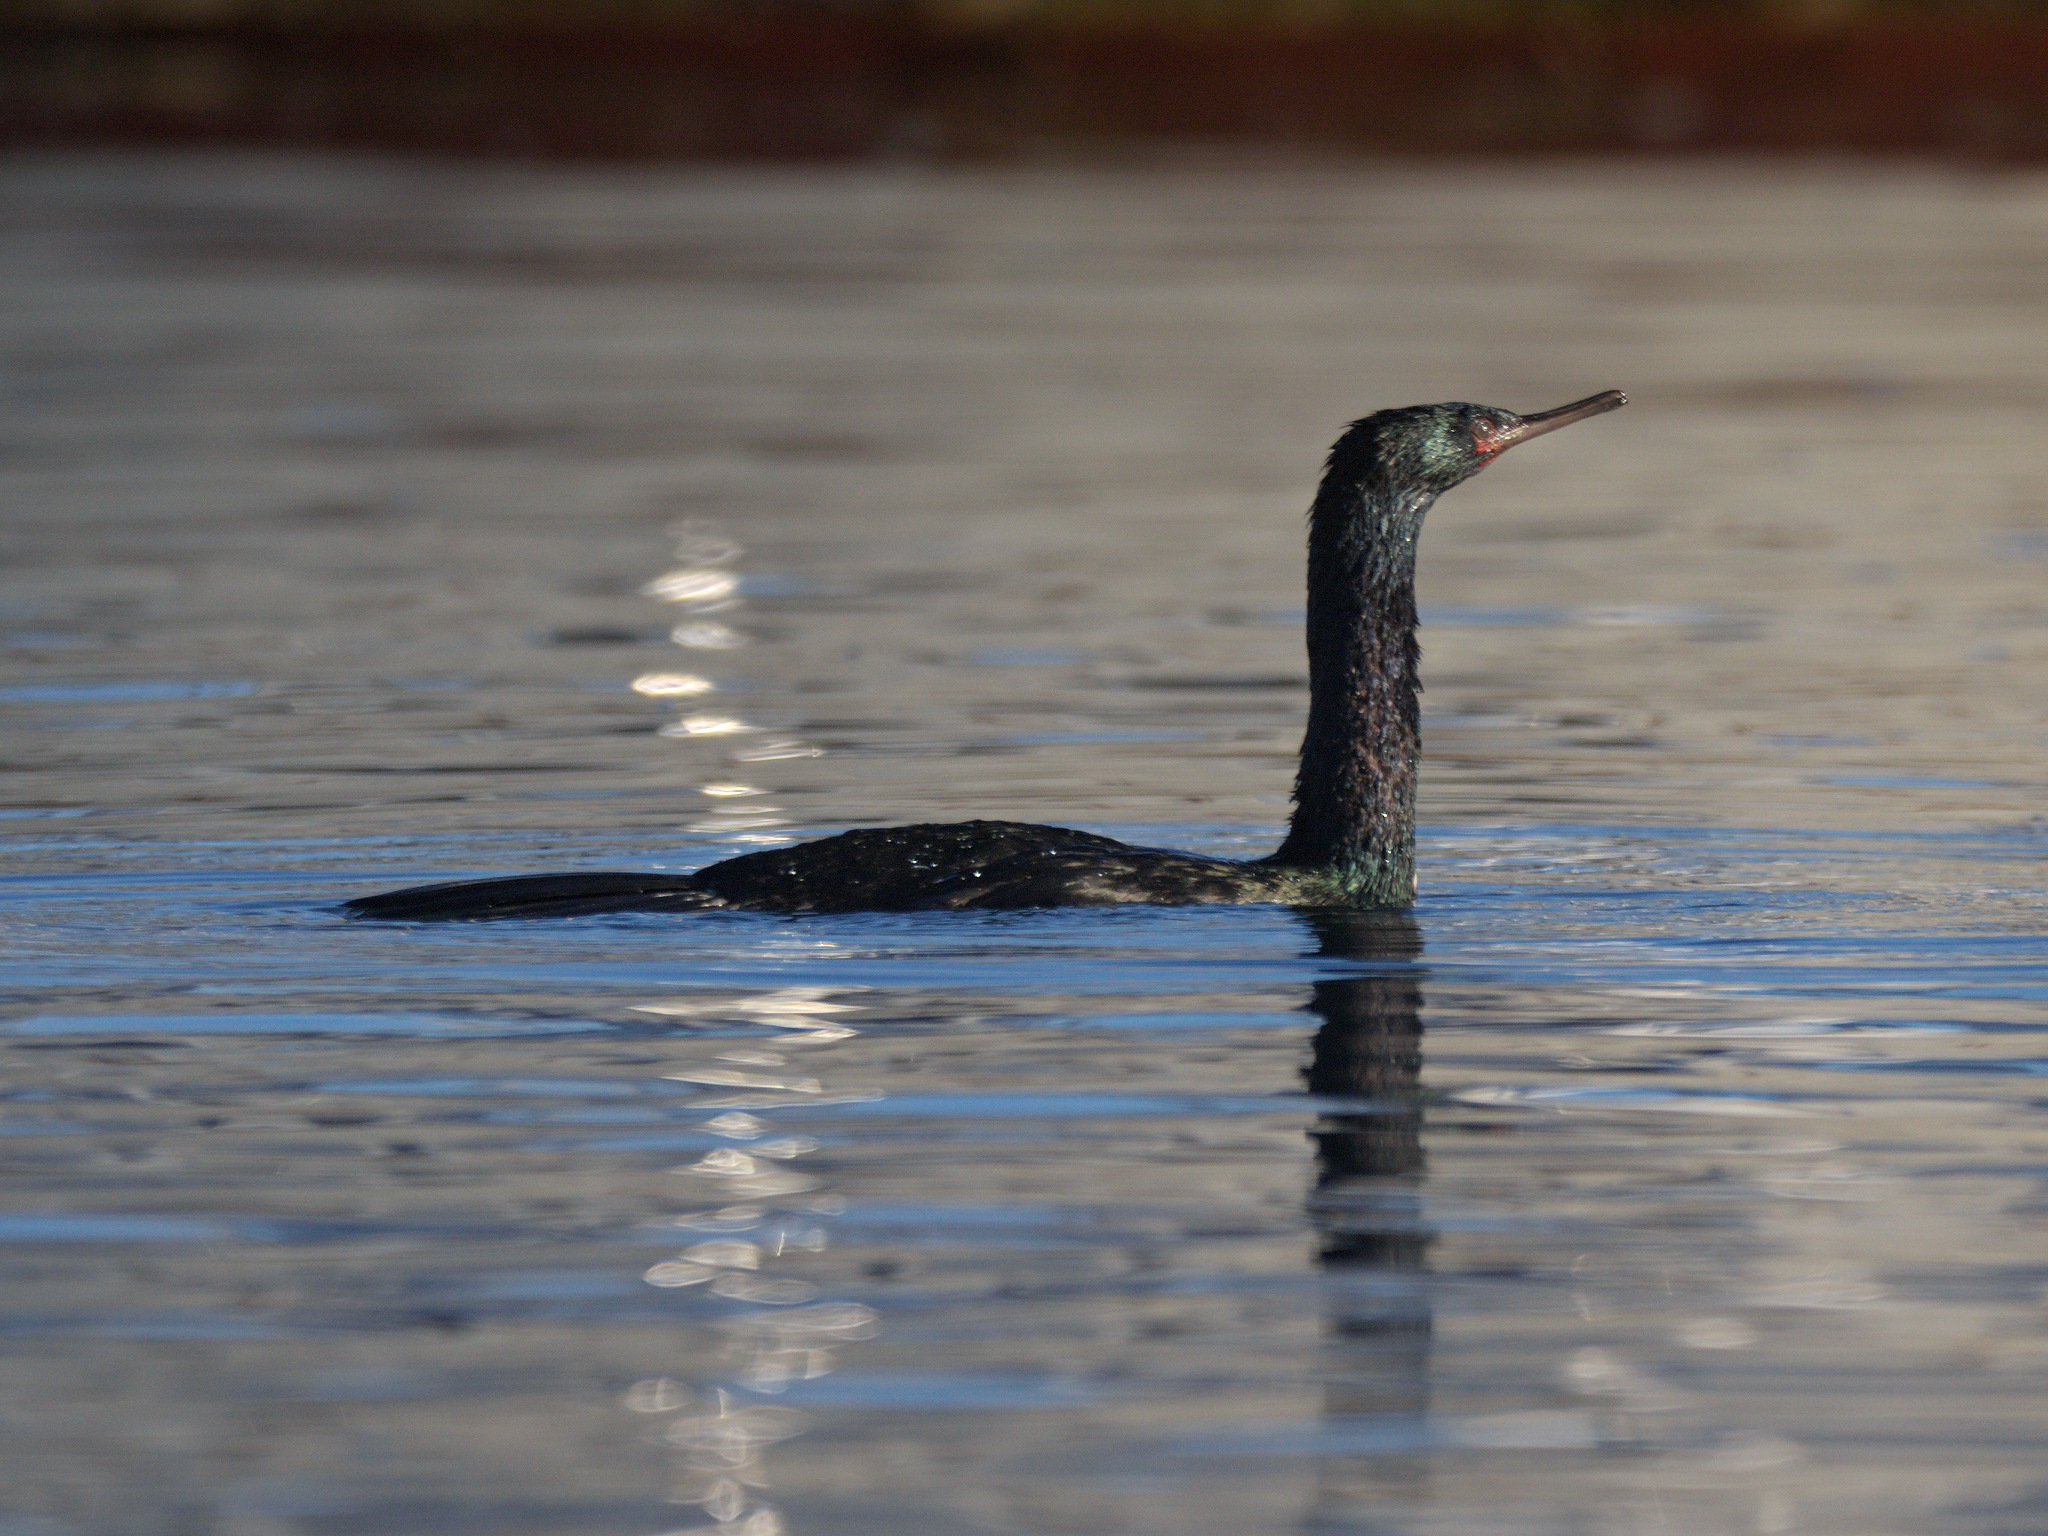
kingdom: Animalia
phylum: Chordata
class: Aves
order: Suliformes
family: Phalacrocoracidae
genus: Phalacrocorax
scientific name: Phalacrocorax pelagicus
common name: Pelagic cormorant
